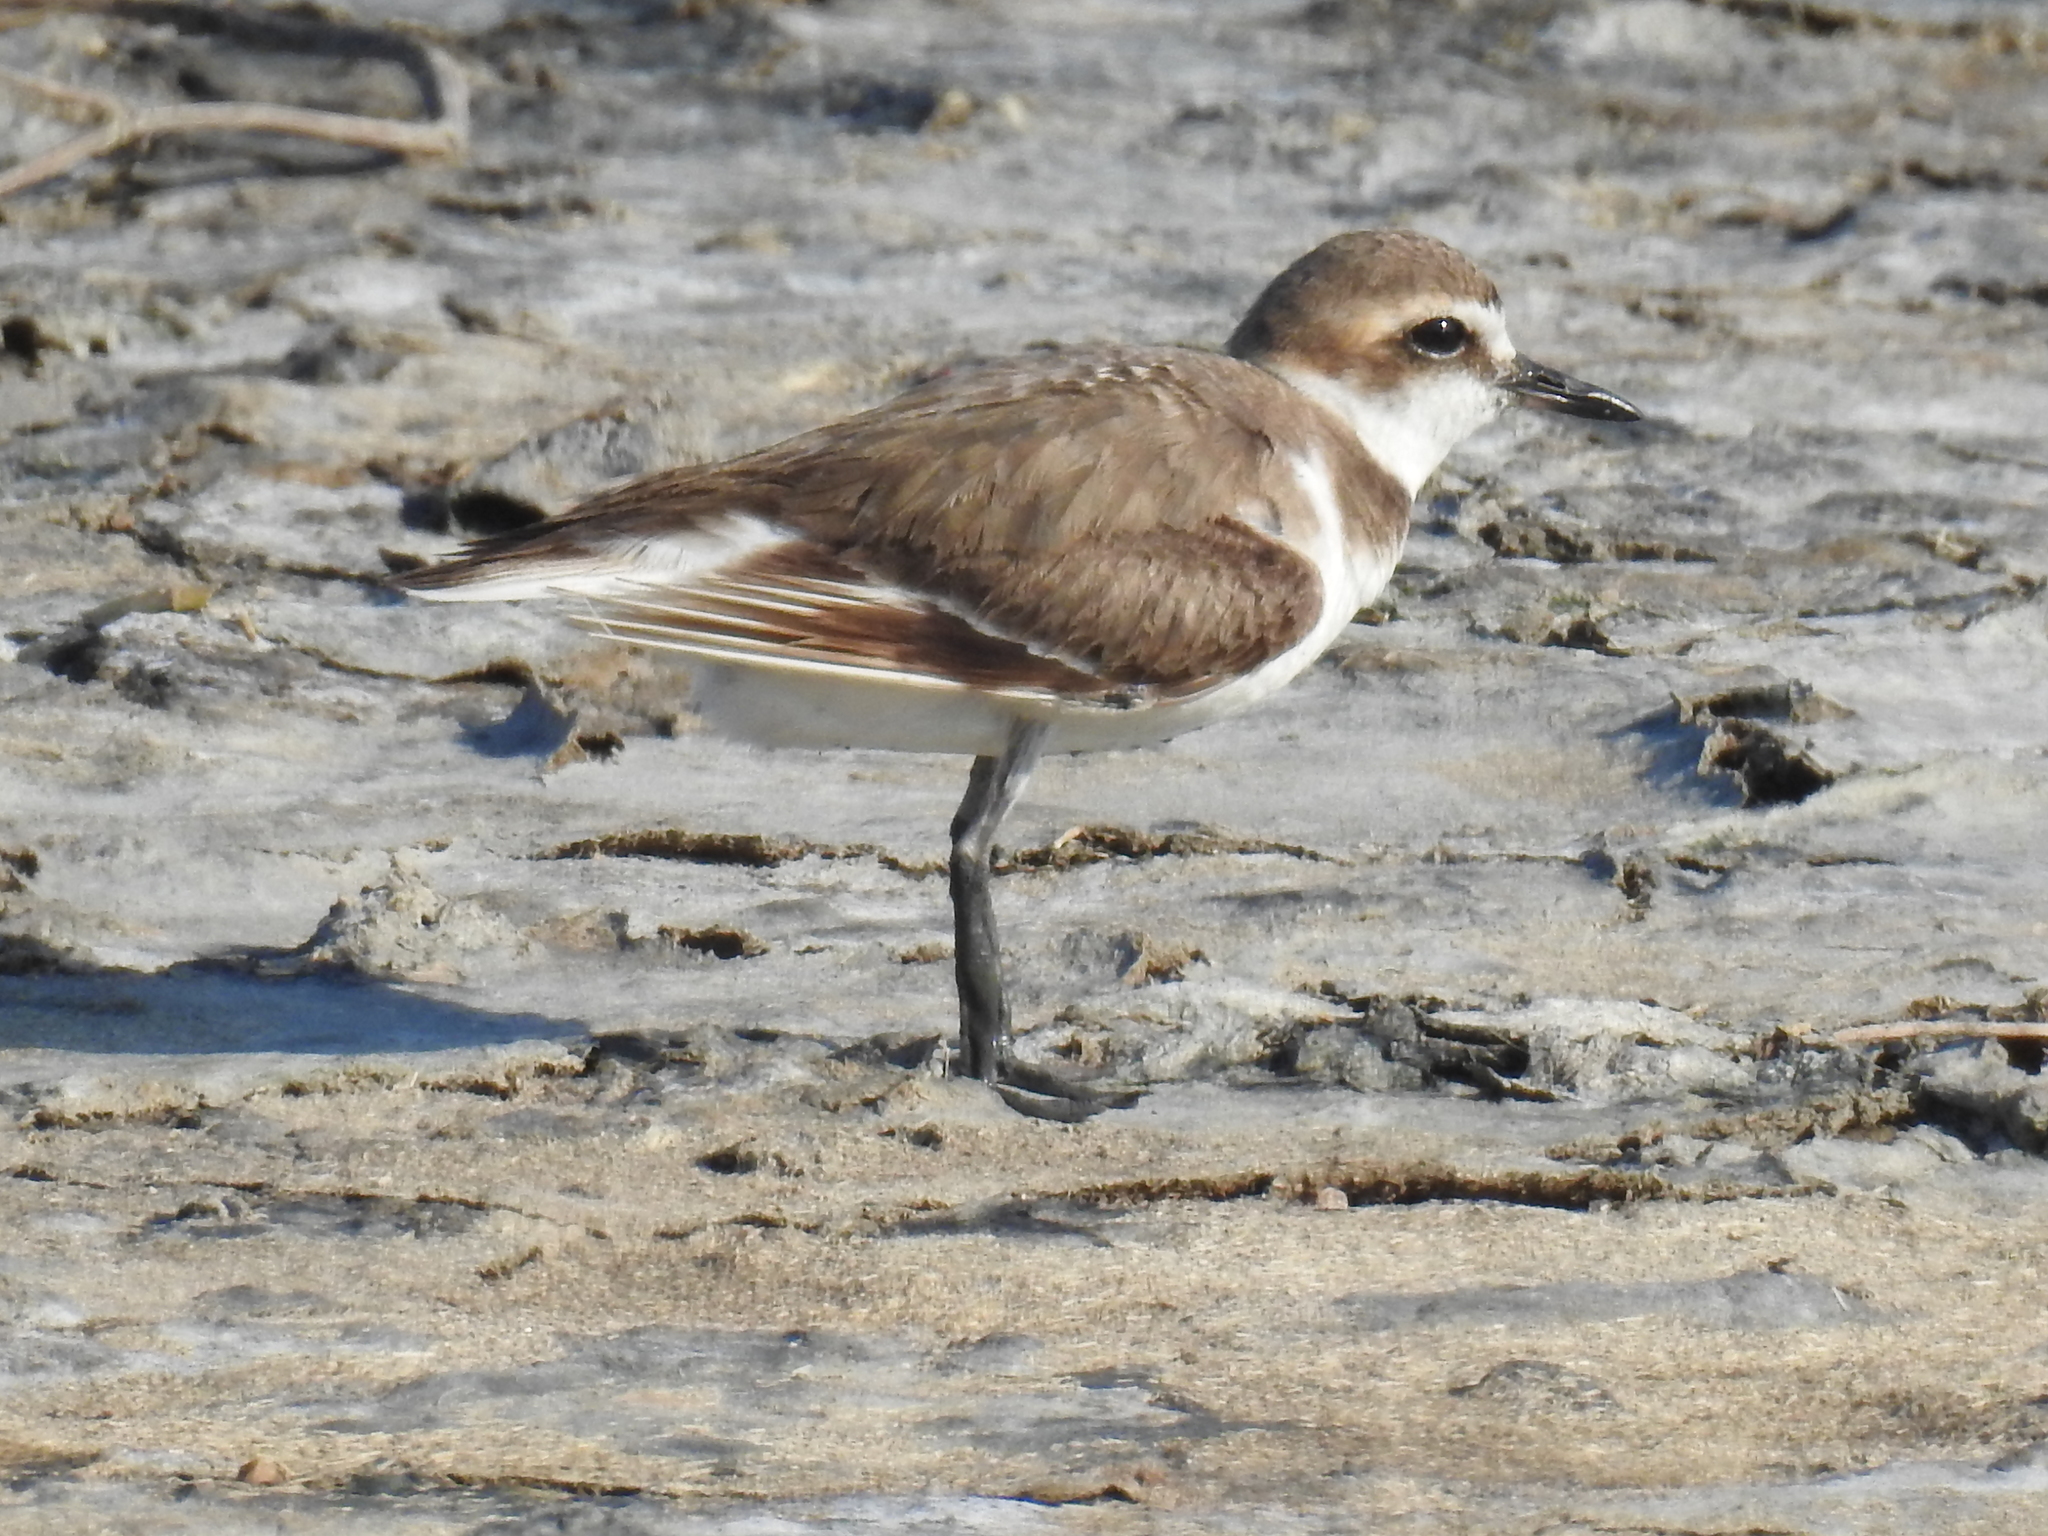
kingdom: Animalia
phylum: Chordata
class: Aves
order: Charadriiformes
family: Charadriidae
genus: Charadrius
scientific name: Charadrius alexandrinus
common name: Kentish plover
